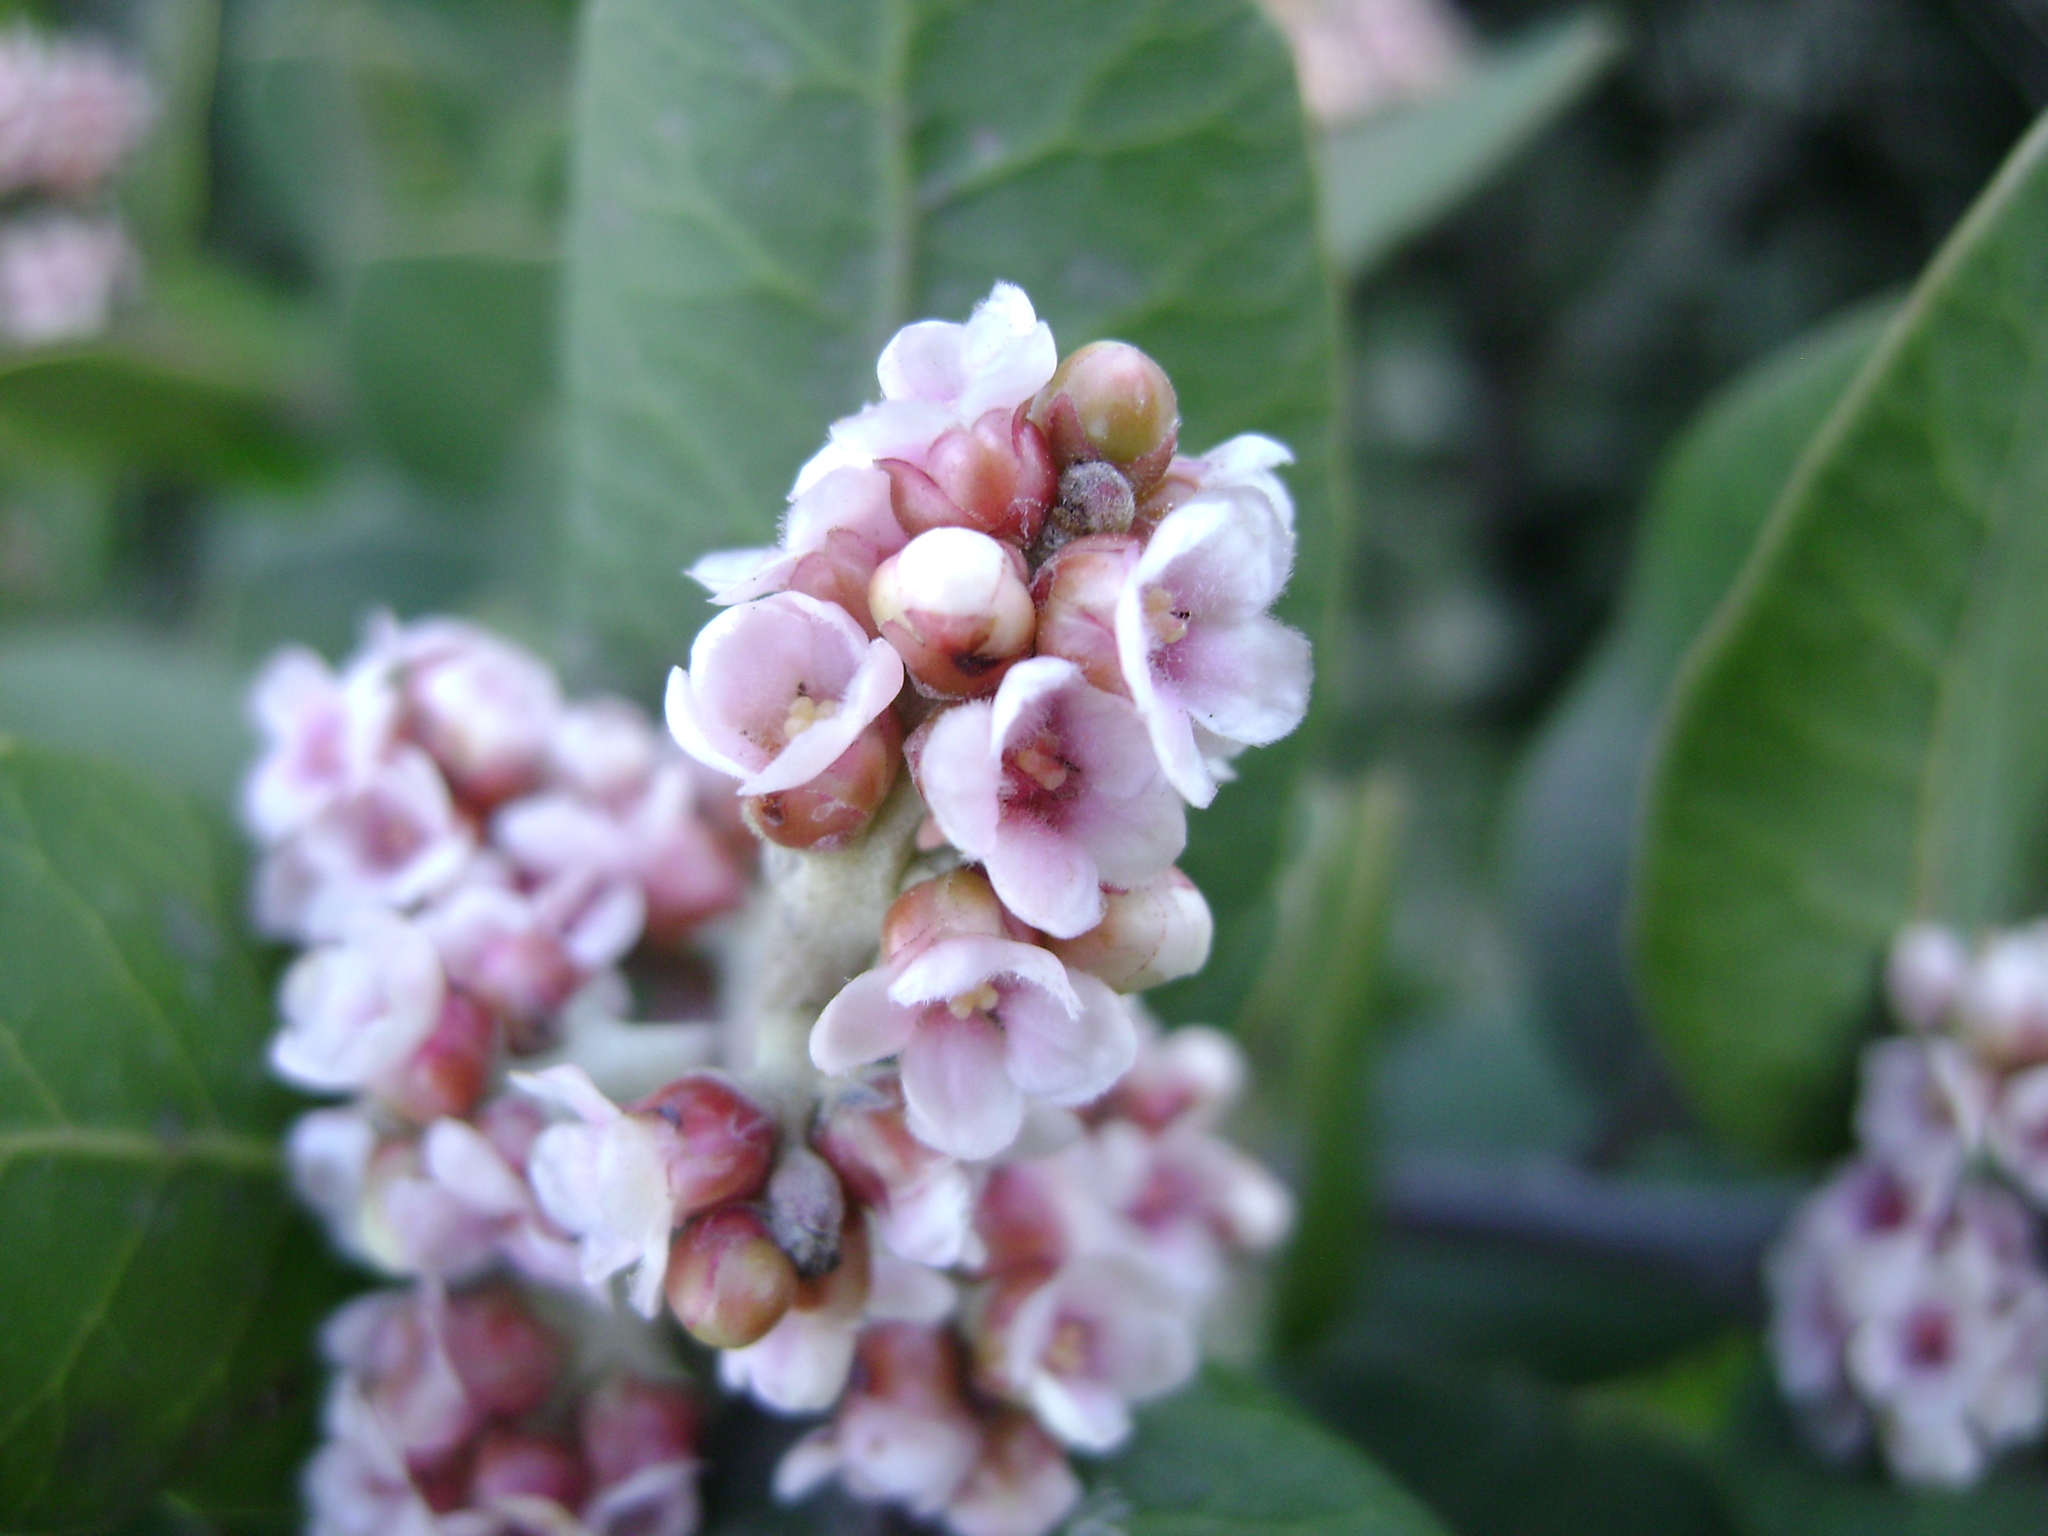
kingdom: Plantae
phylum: Tracheophyta
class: Magnoliopsida
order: Sapindales
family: Anacardiaceae
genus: Rhus
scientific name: Rhus integrifolia
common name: Lemonade sumac
